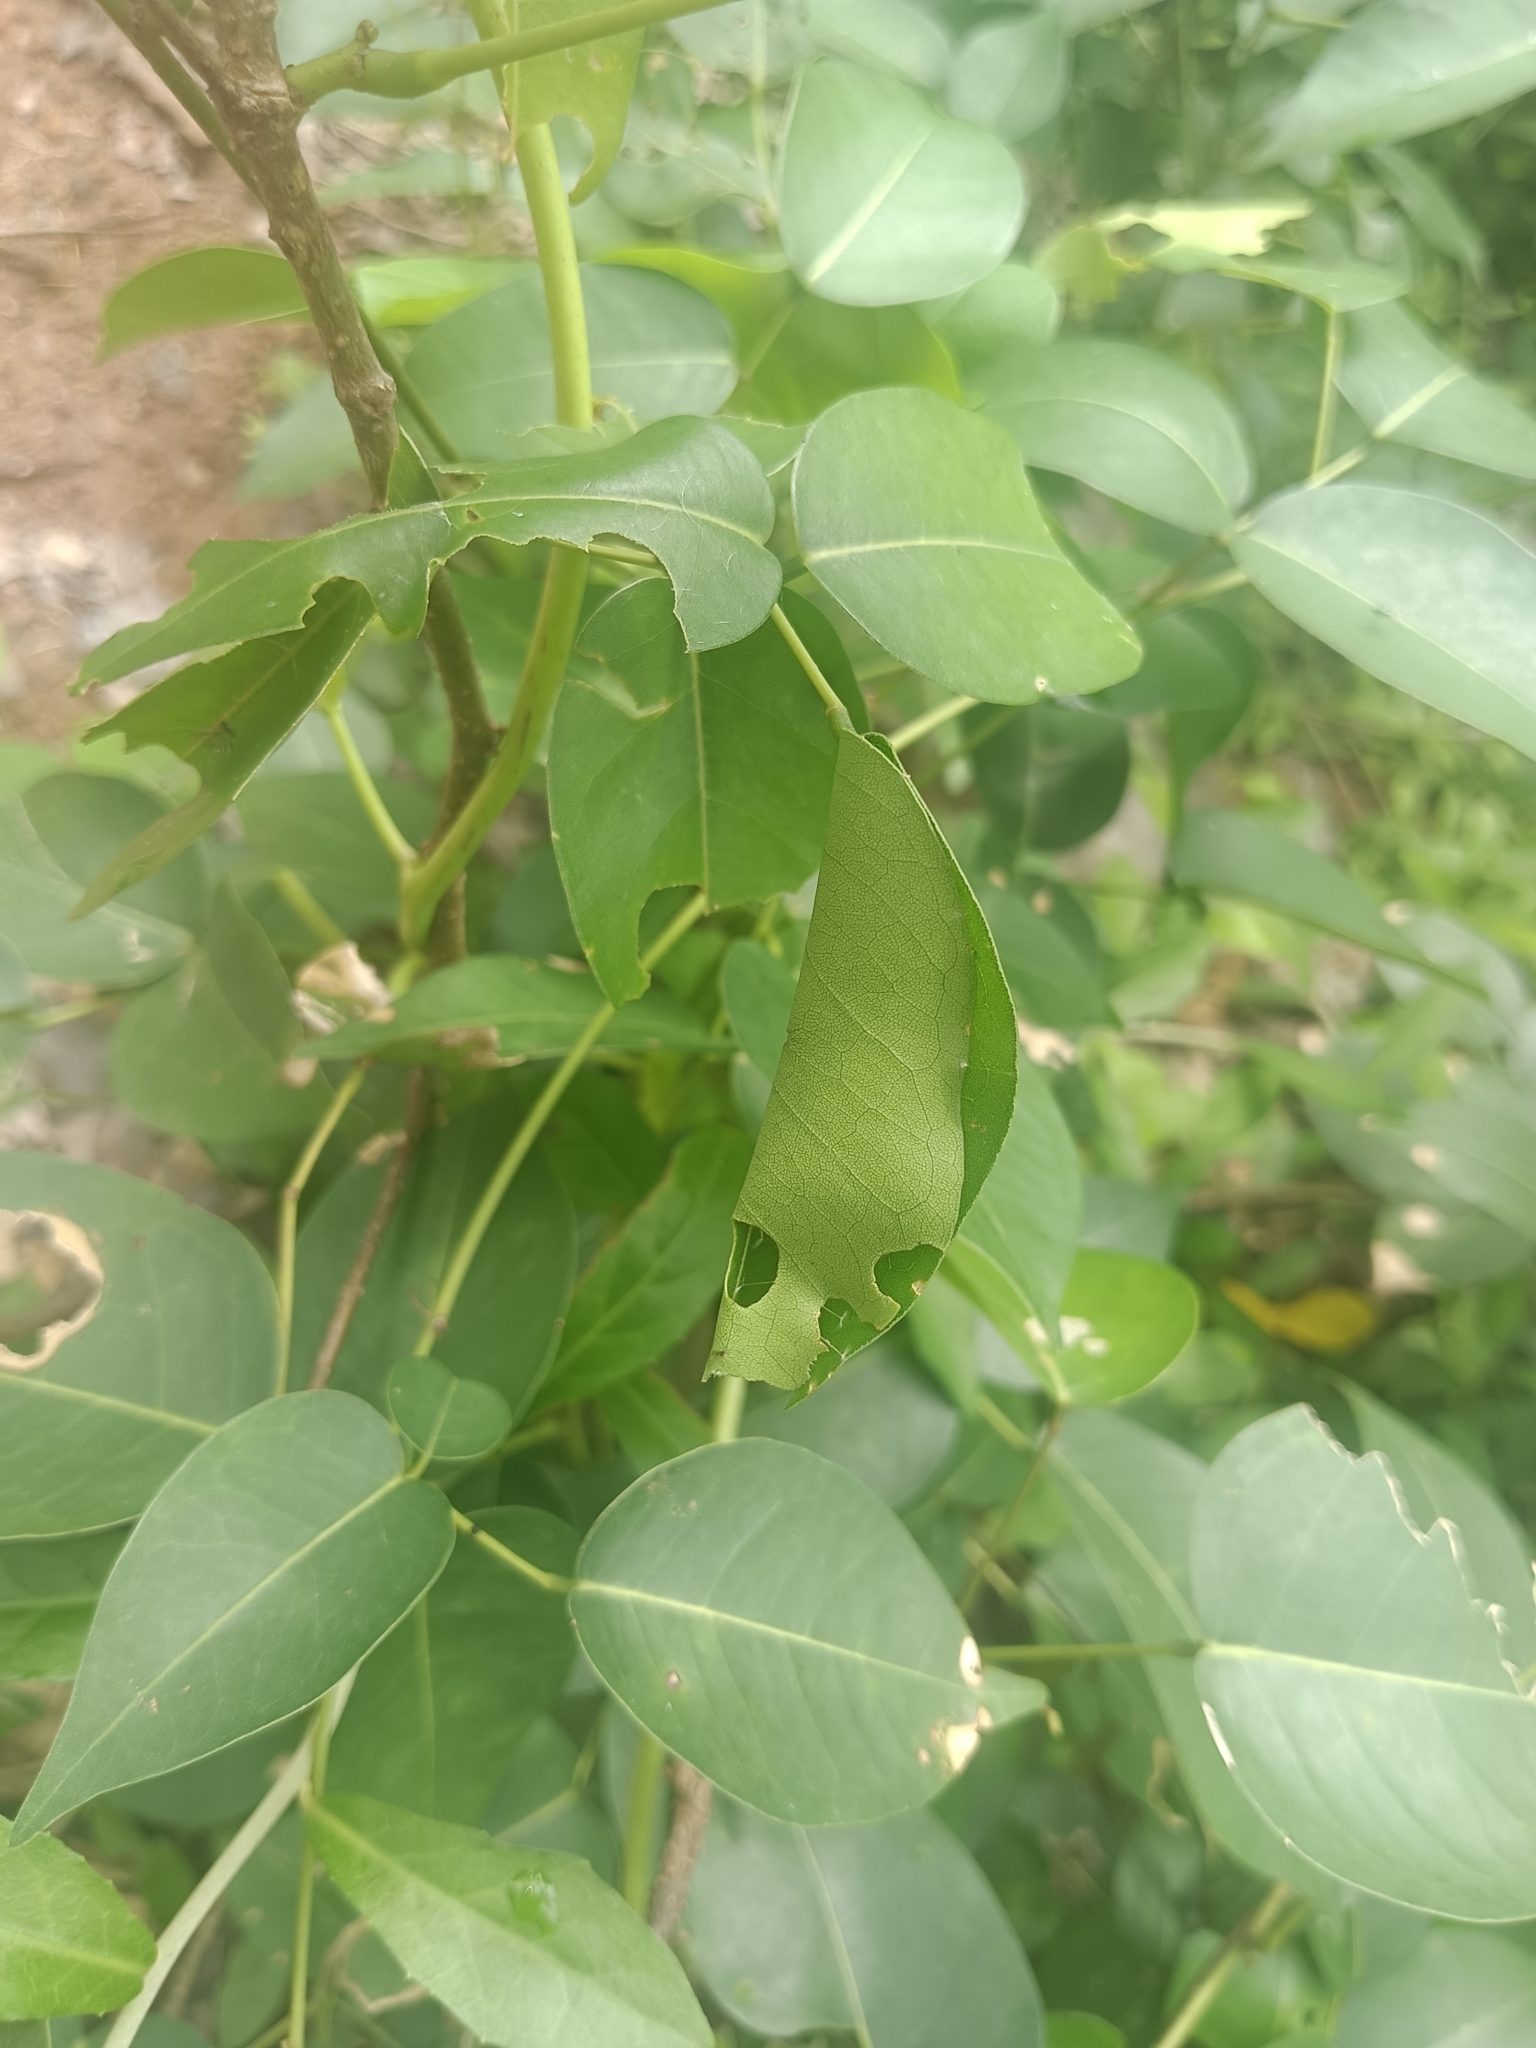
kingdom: Animalia
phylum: Arthropoda
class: Insecta
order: Lepidoptera
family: Hesperiidae
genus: Hasora
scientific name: Hasora badra
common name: Common awl
